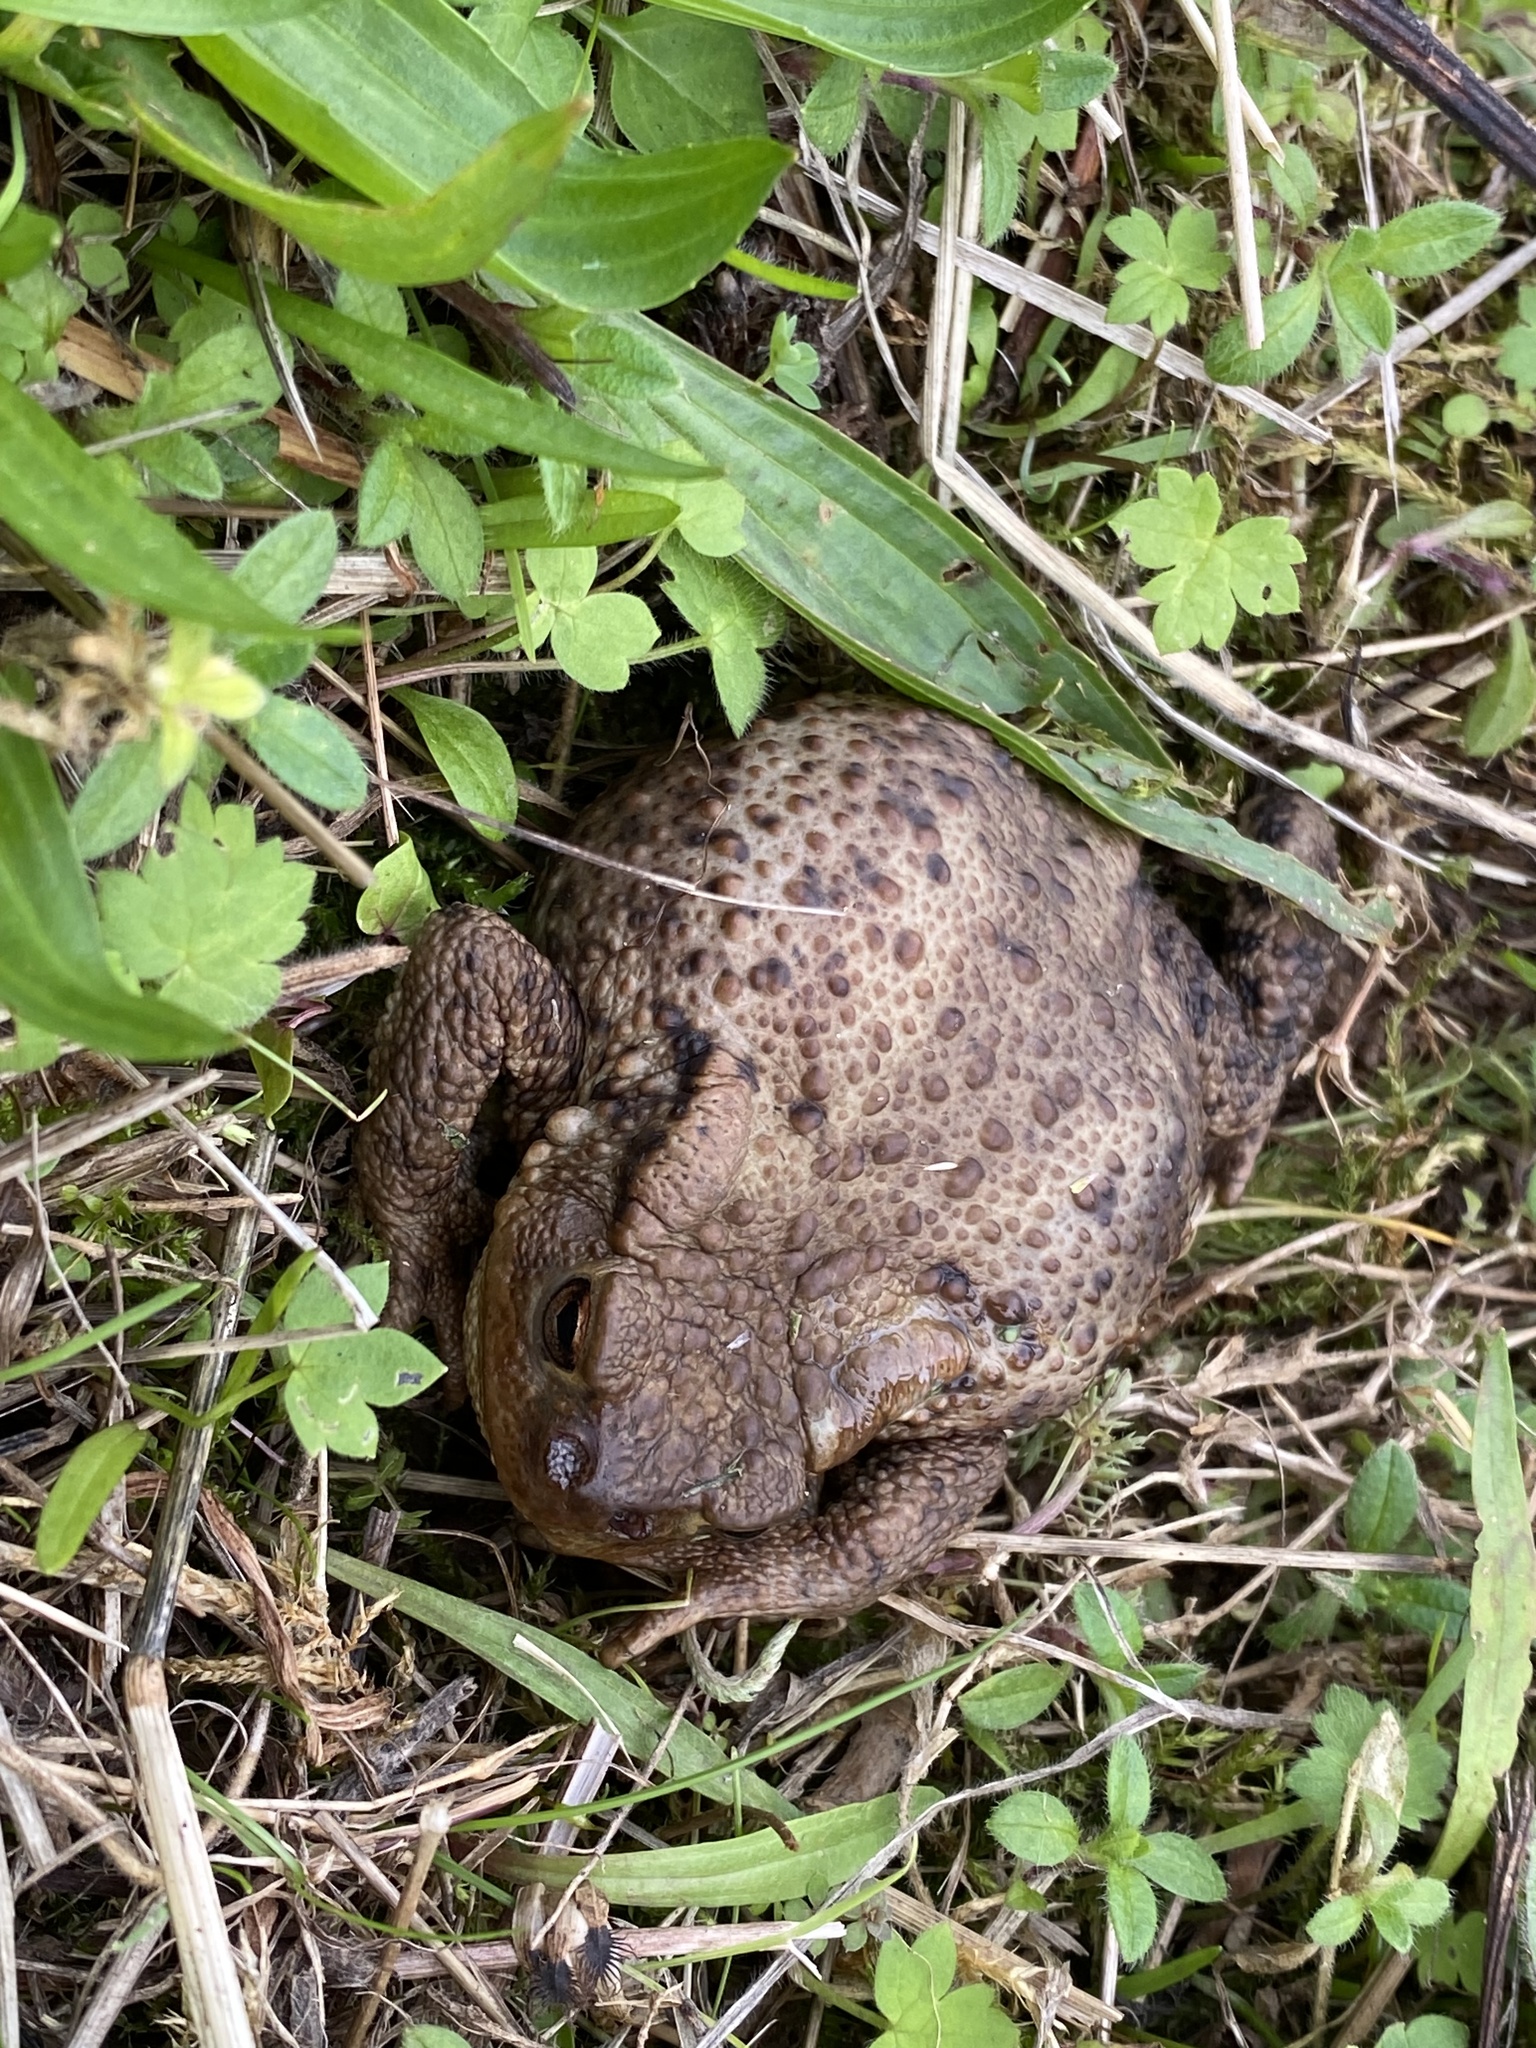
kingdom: Animalia
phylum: Chordata
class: Amphibia
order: Anura
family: Bufonidae
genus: Bufo
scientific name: Bufo bufo
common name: Common toad
